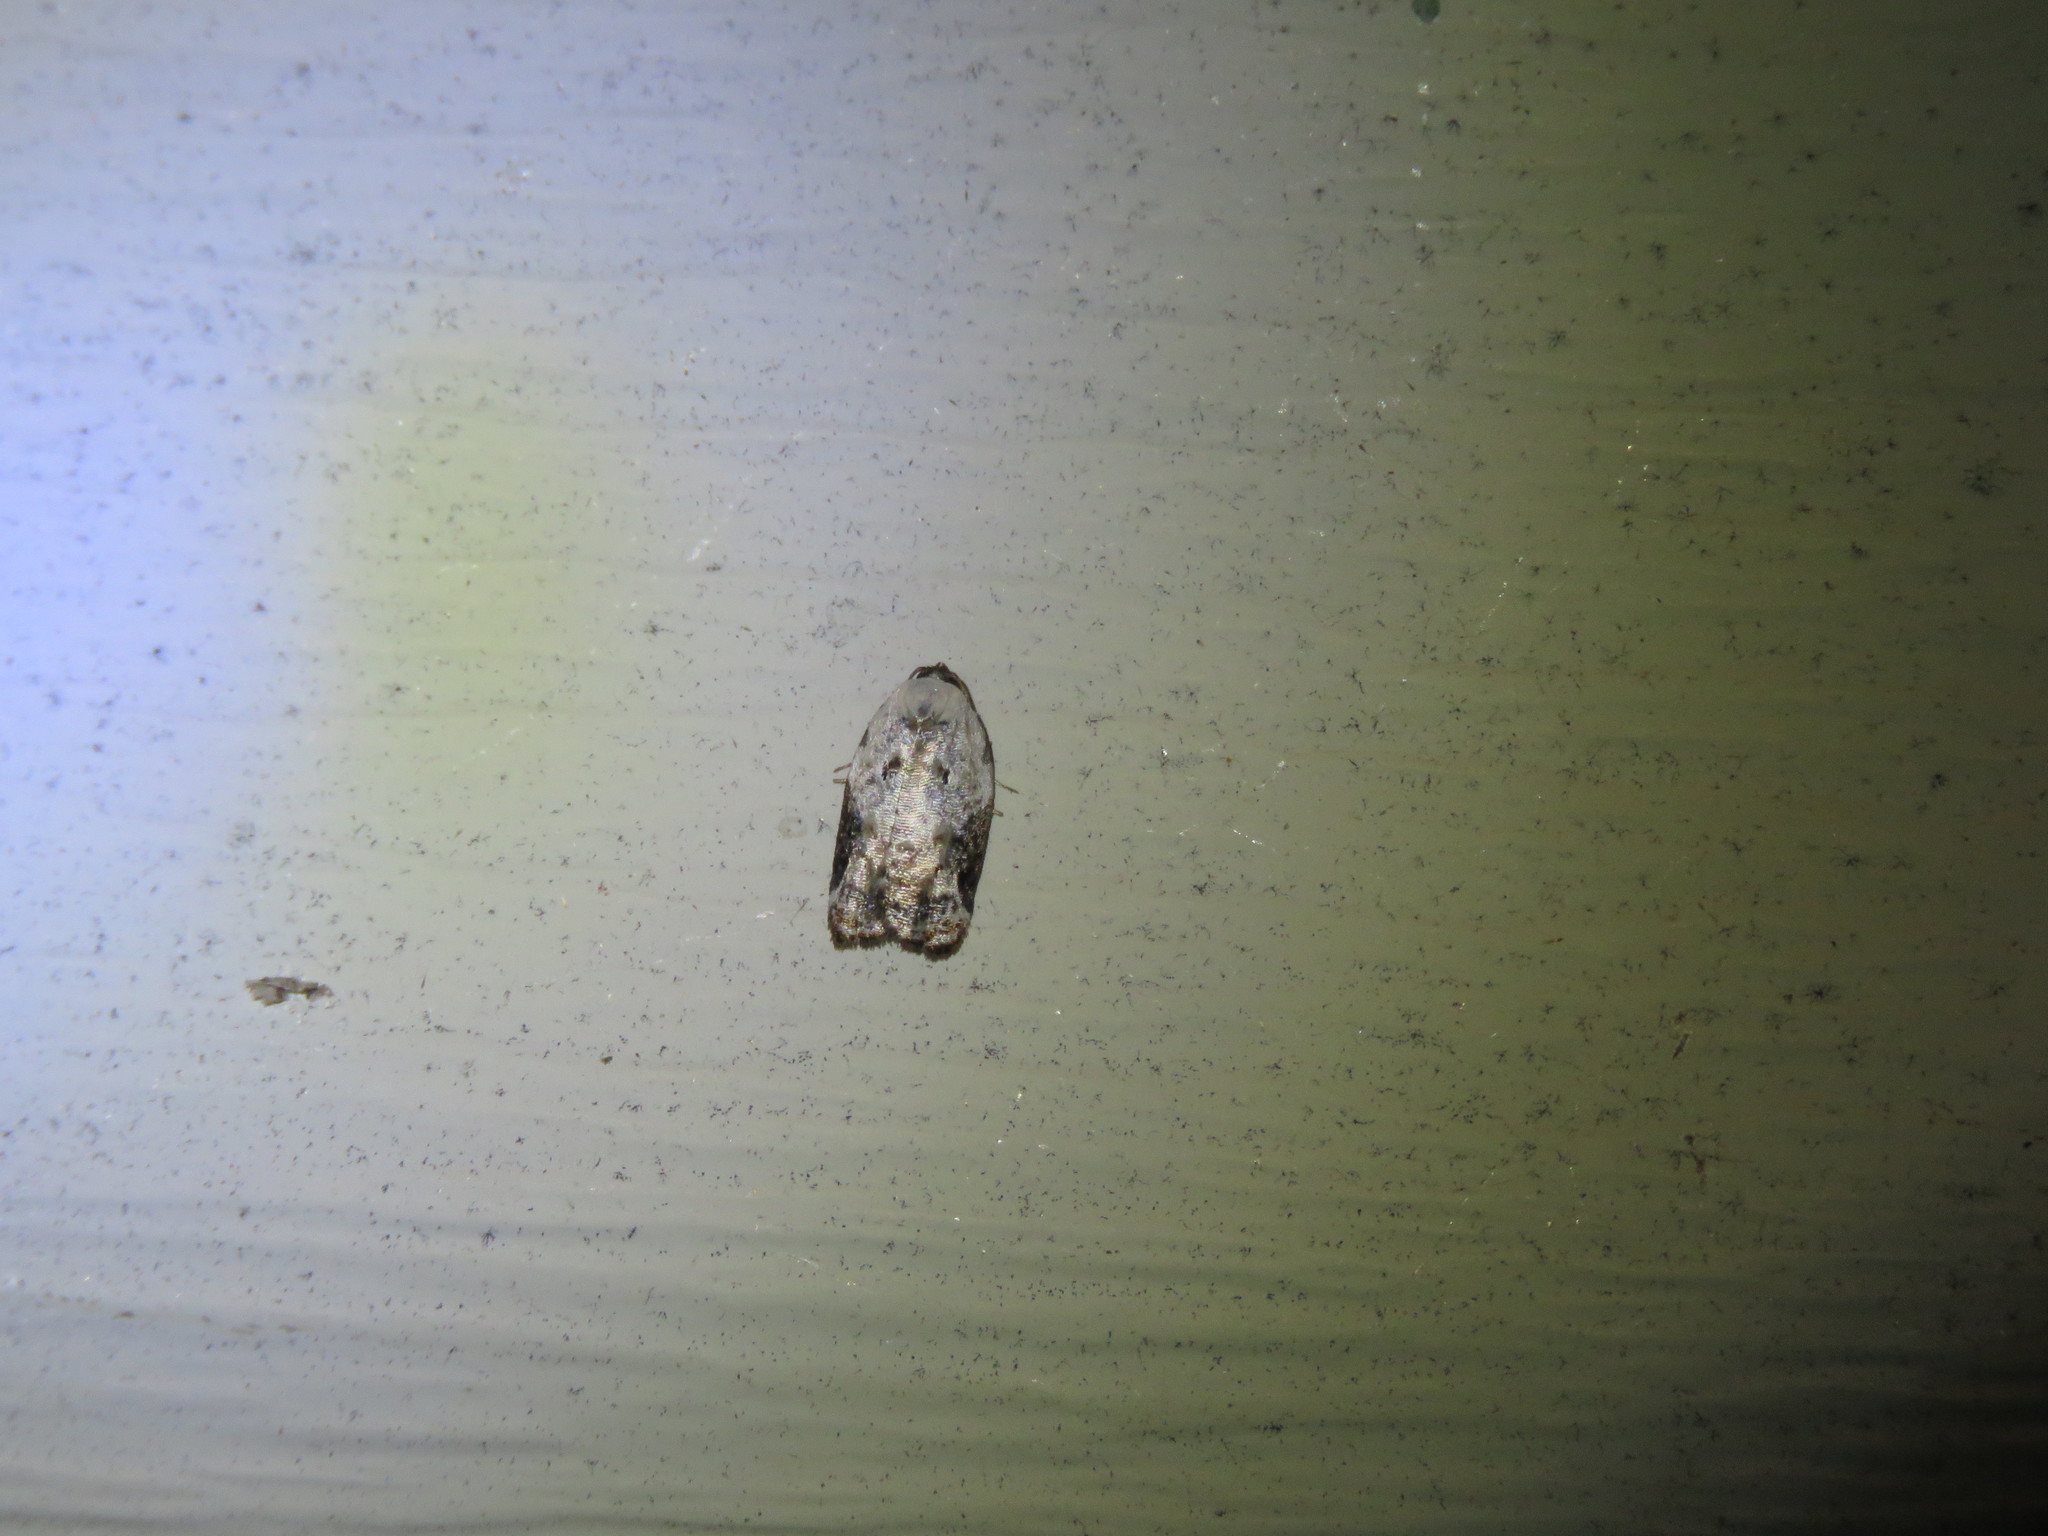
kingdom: Animalia
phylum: Arthropoda
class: Insecta
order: Lepidoptera
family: Tortricidae
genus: Acleris
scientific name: Acleris nivisellana
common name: Snowy-shouldered acleris moth
